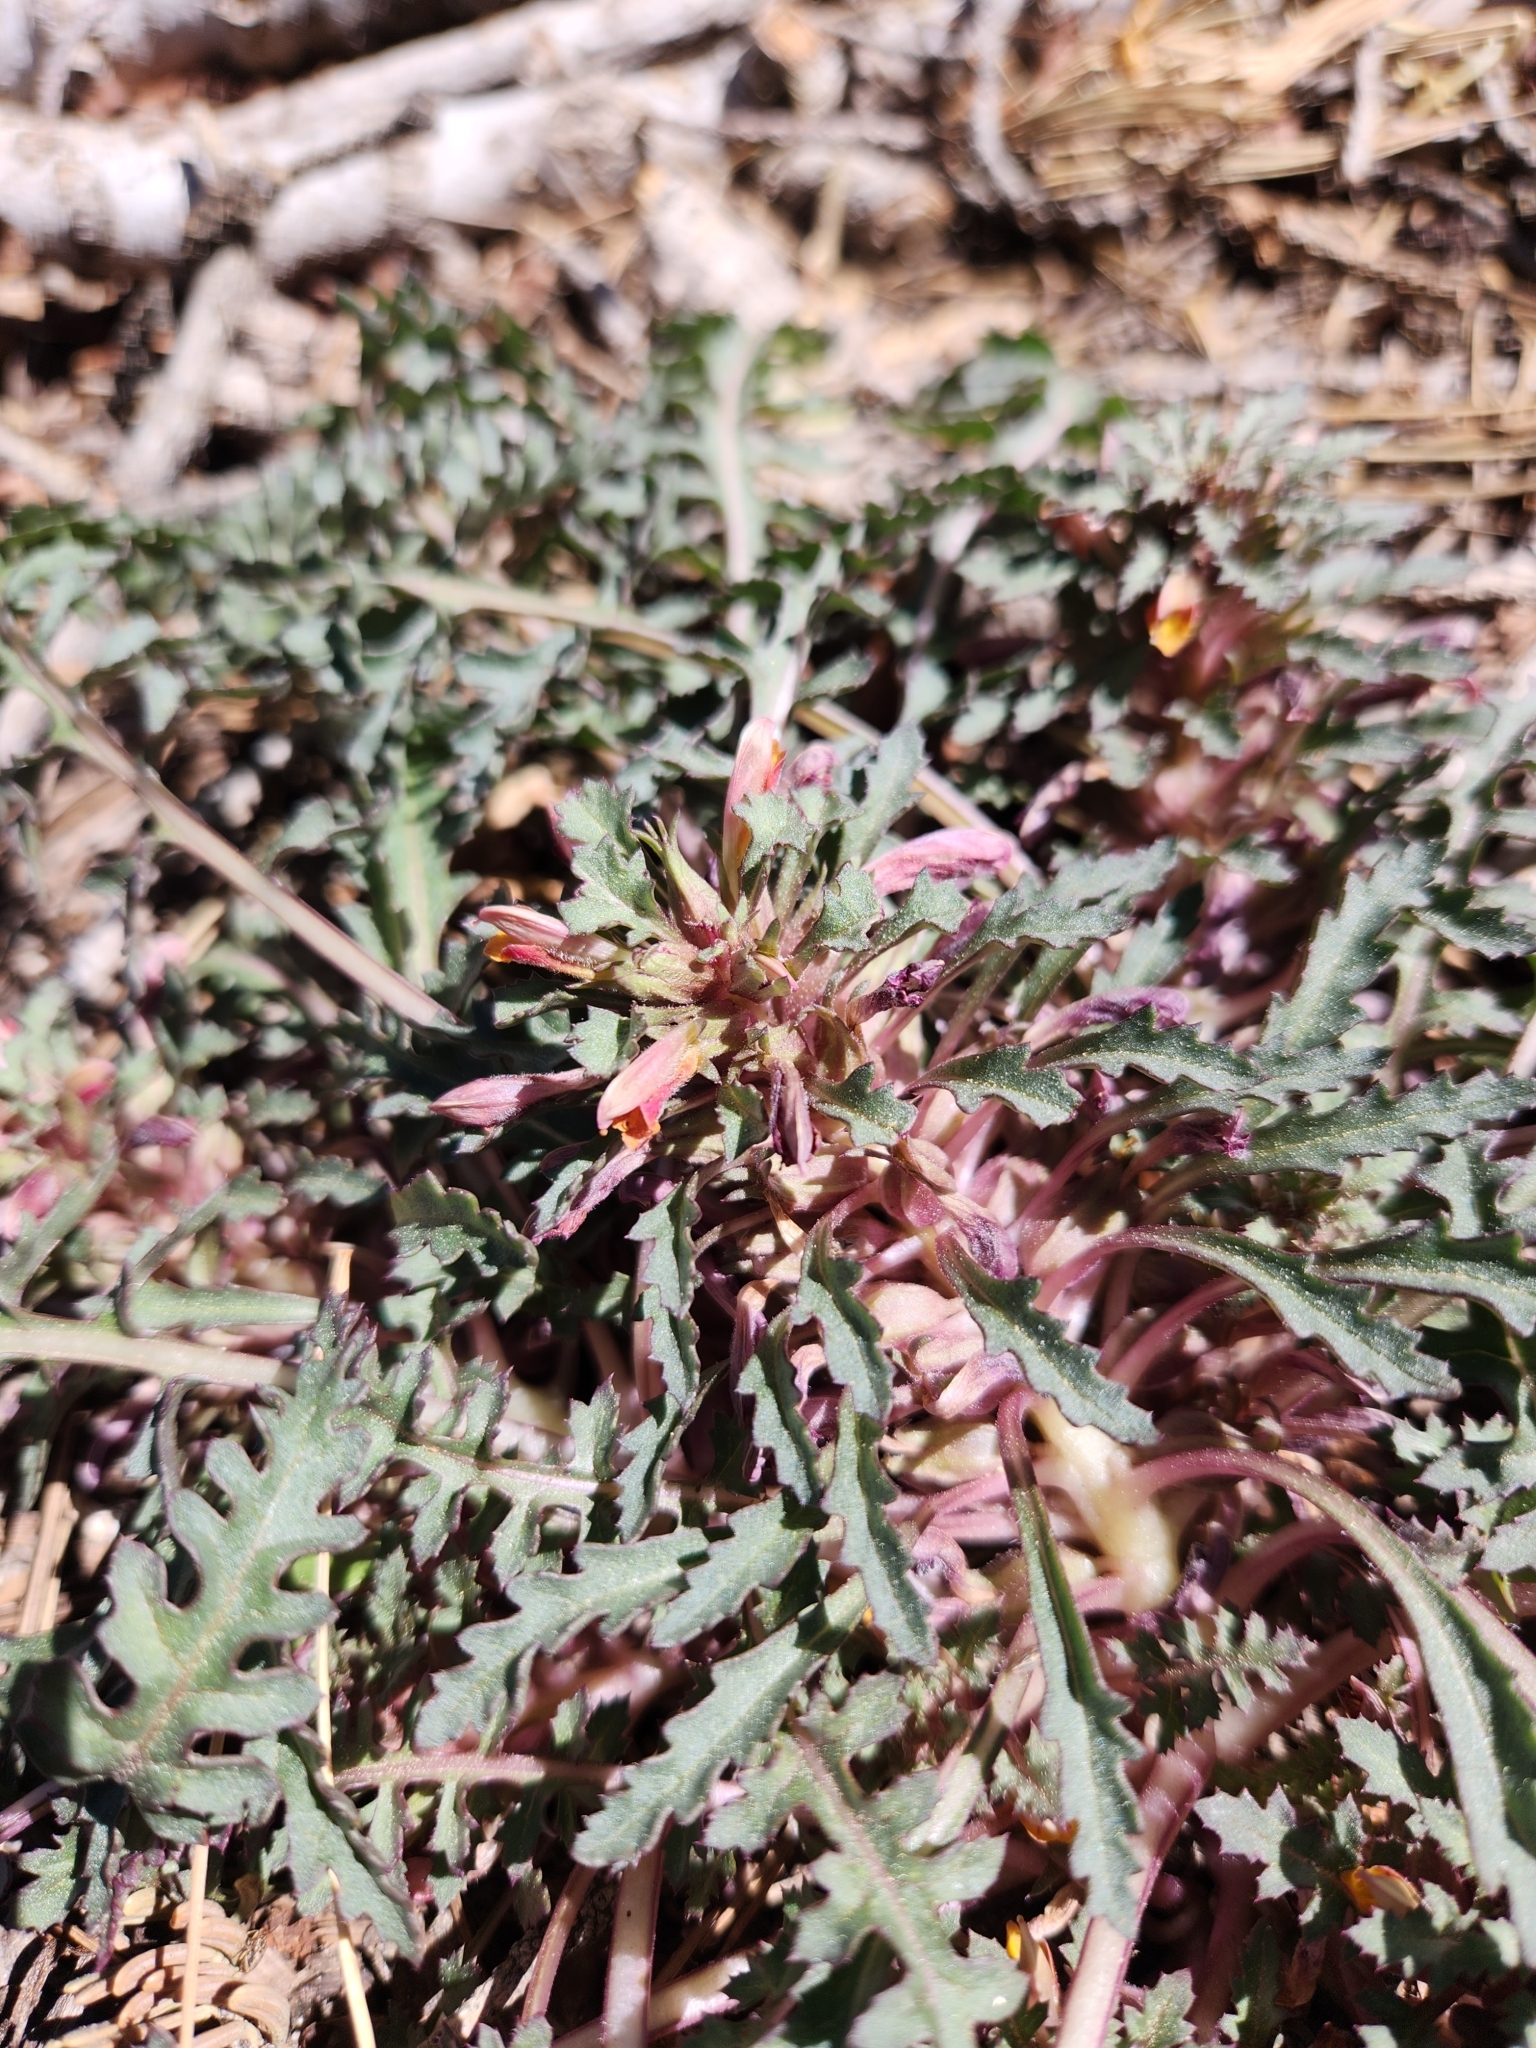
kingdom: Plantae
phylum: Tracheophyta
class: Magnoliopsida
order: Lamiales
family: Orobanchaceae
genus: Pedicularis
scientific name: Pedicularis semibarbata
